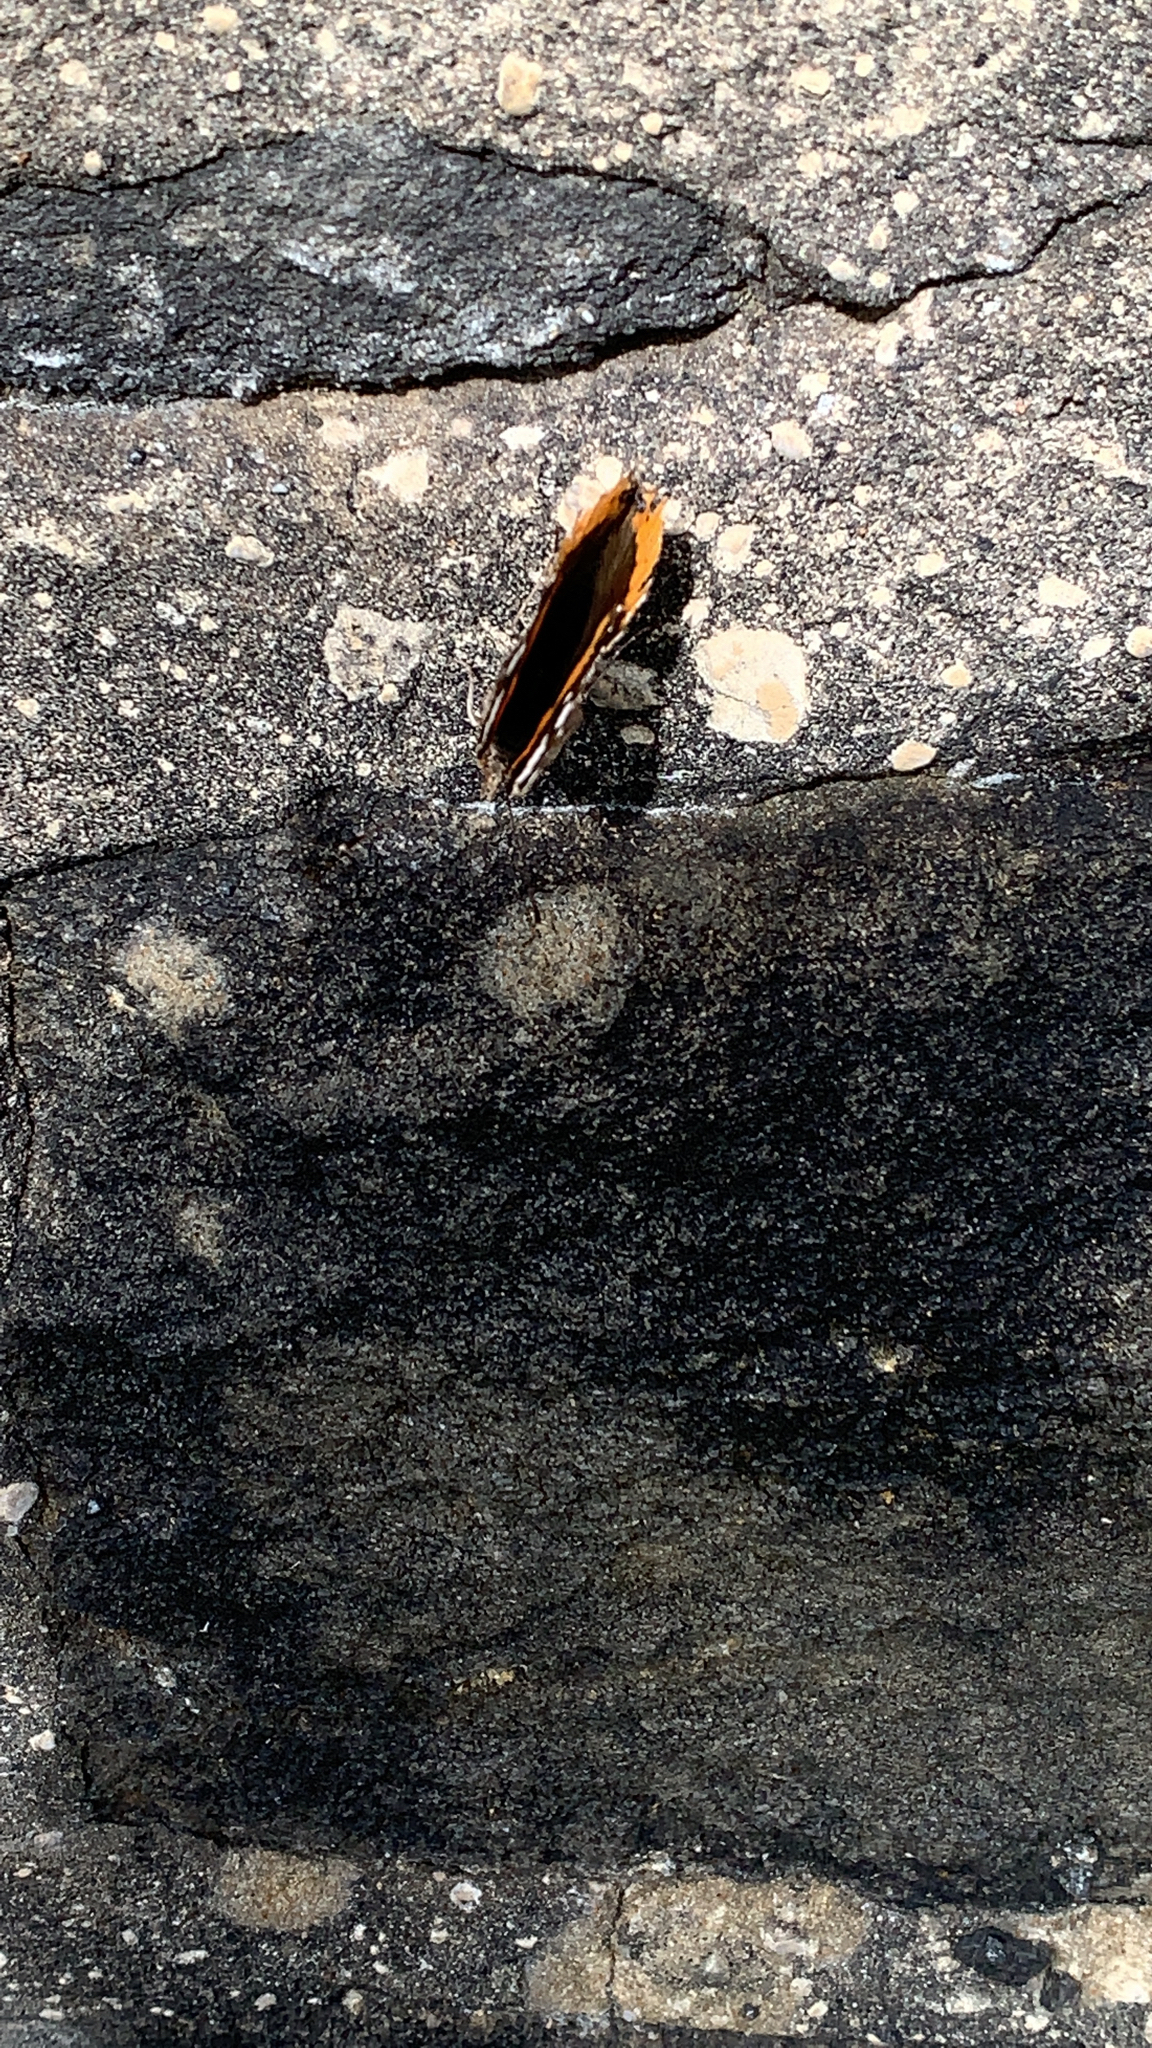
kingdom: Animalia
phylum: Arthropoda
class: Insecta
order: Lepidoptera
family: Nymphalidae
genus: Vanessa
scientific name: Vanessa atalanta
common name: Red admiral
